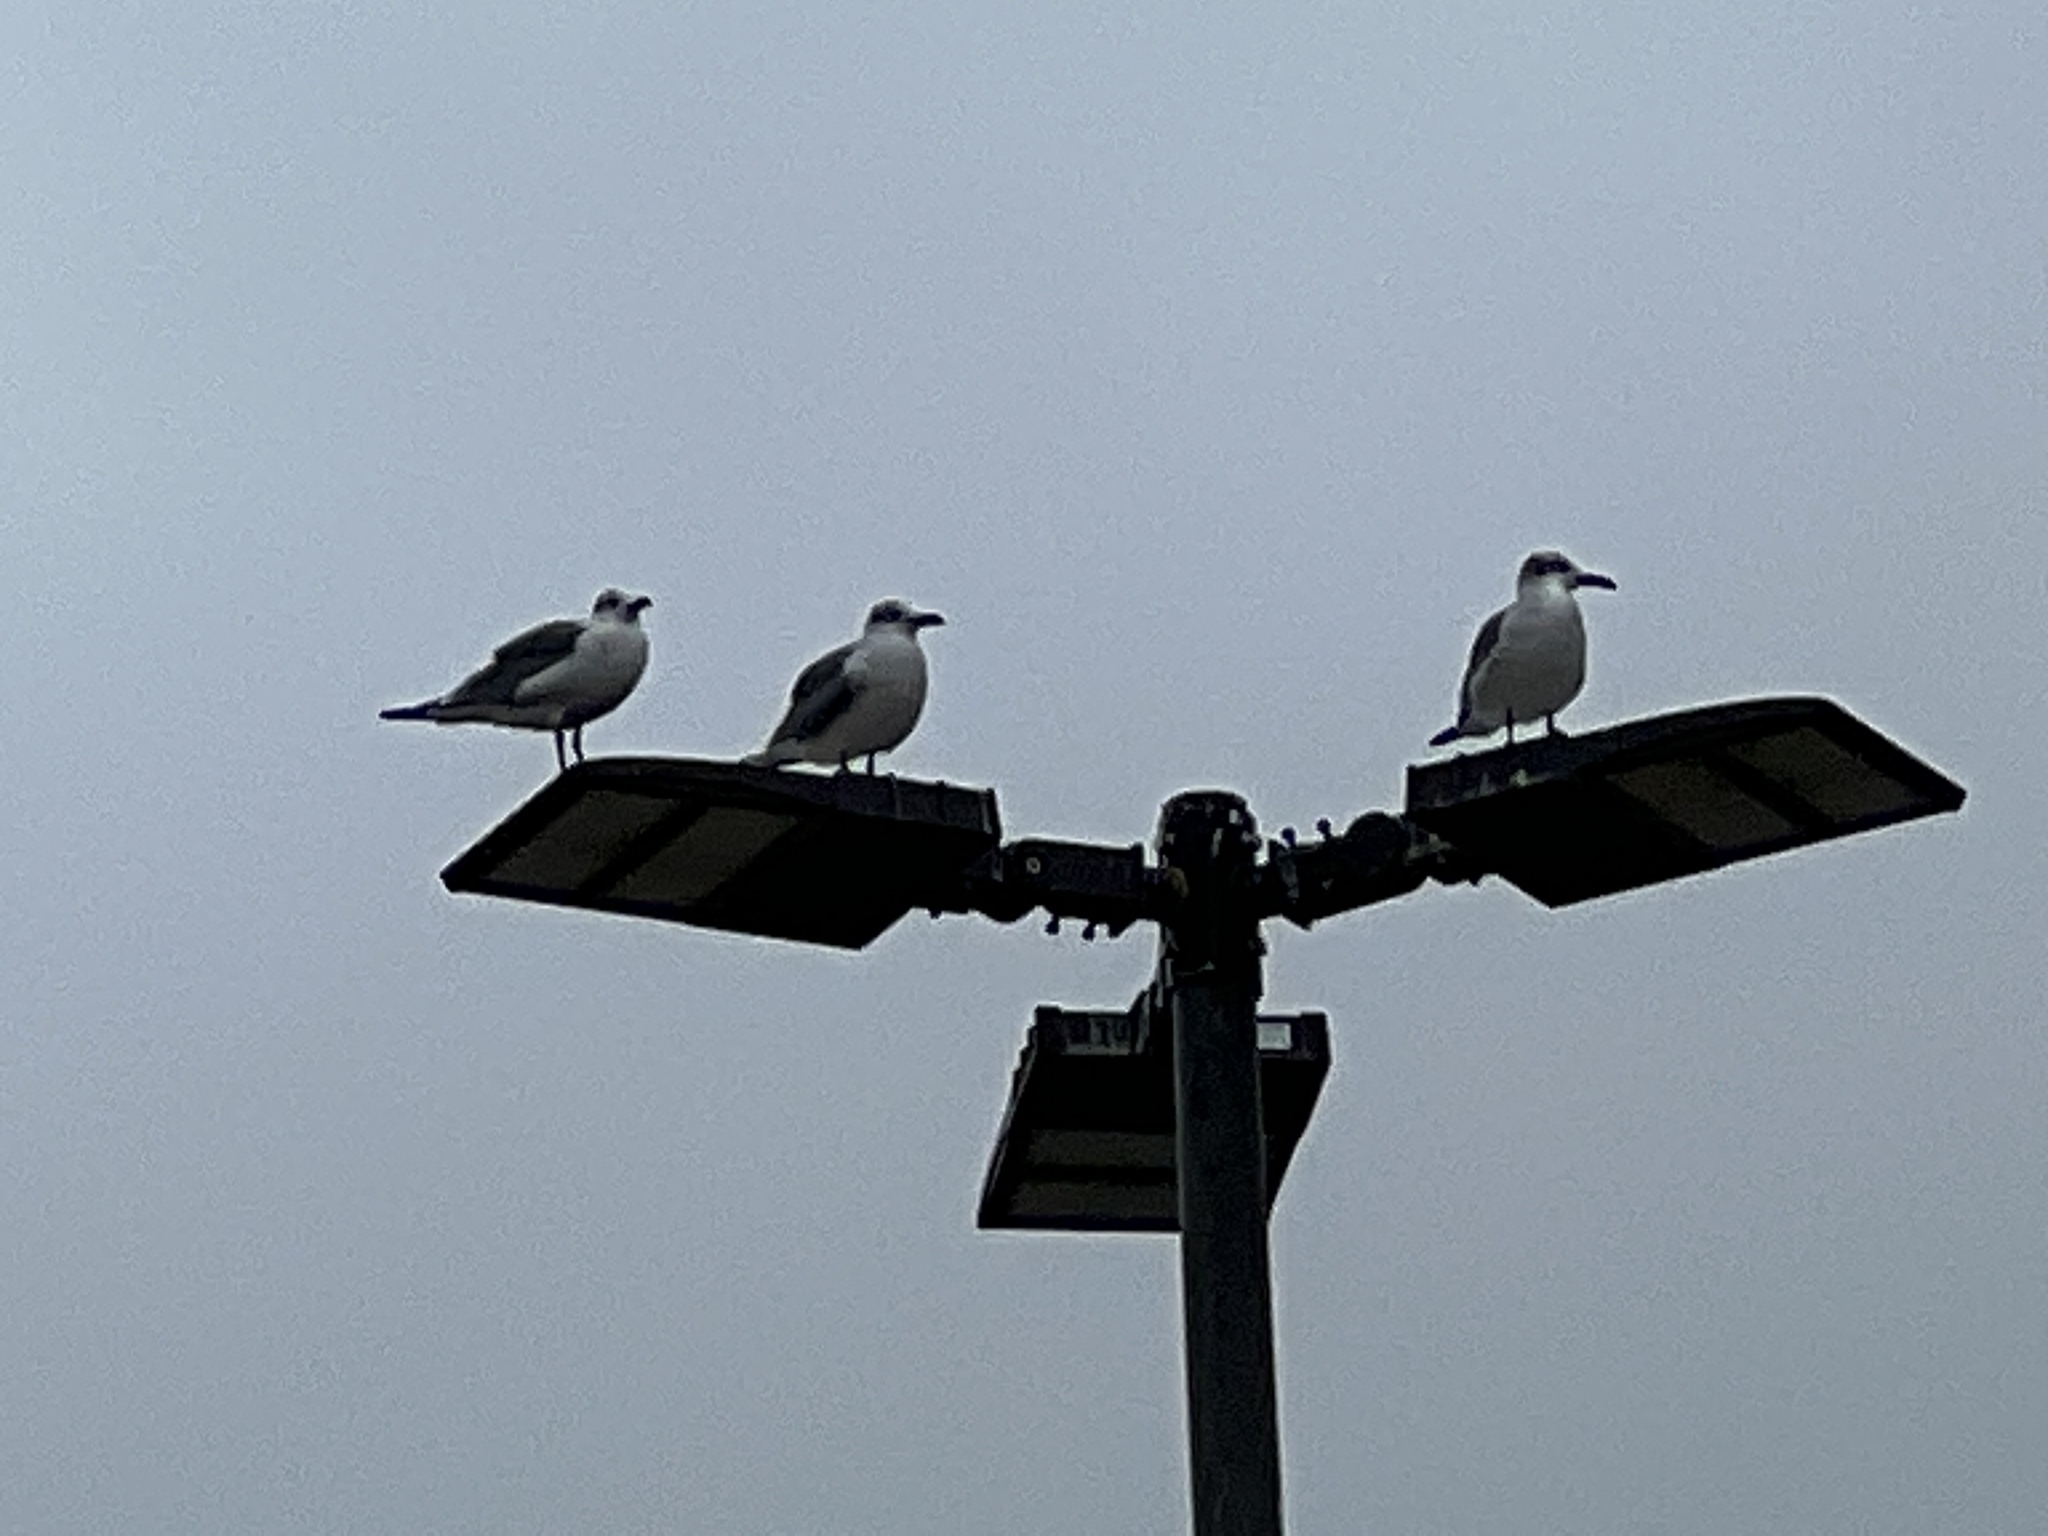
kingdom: Animalia
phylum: Chordata
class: Aves
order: Charadriiformes
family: Laridae
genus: Leucophaeus
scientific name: Leucophaeus atricilla
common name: Laughing gull
